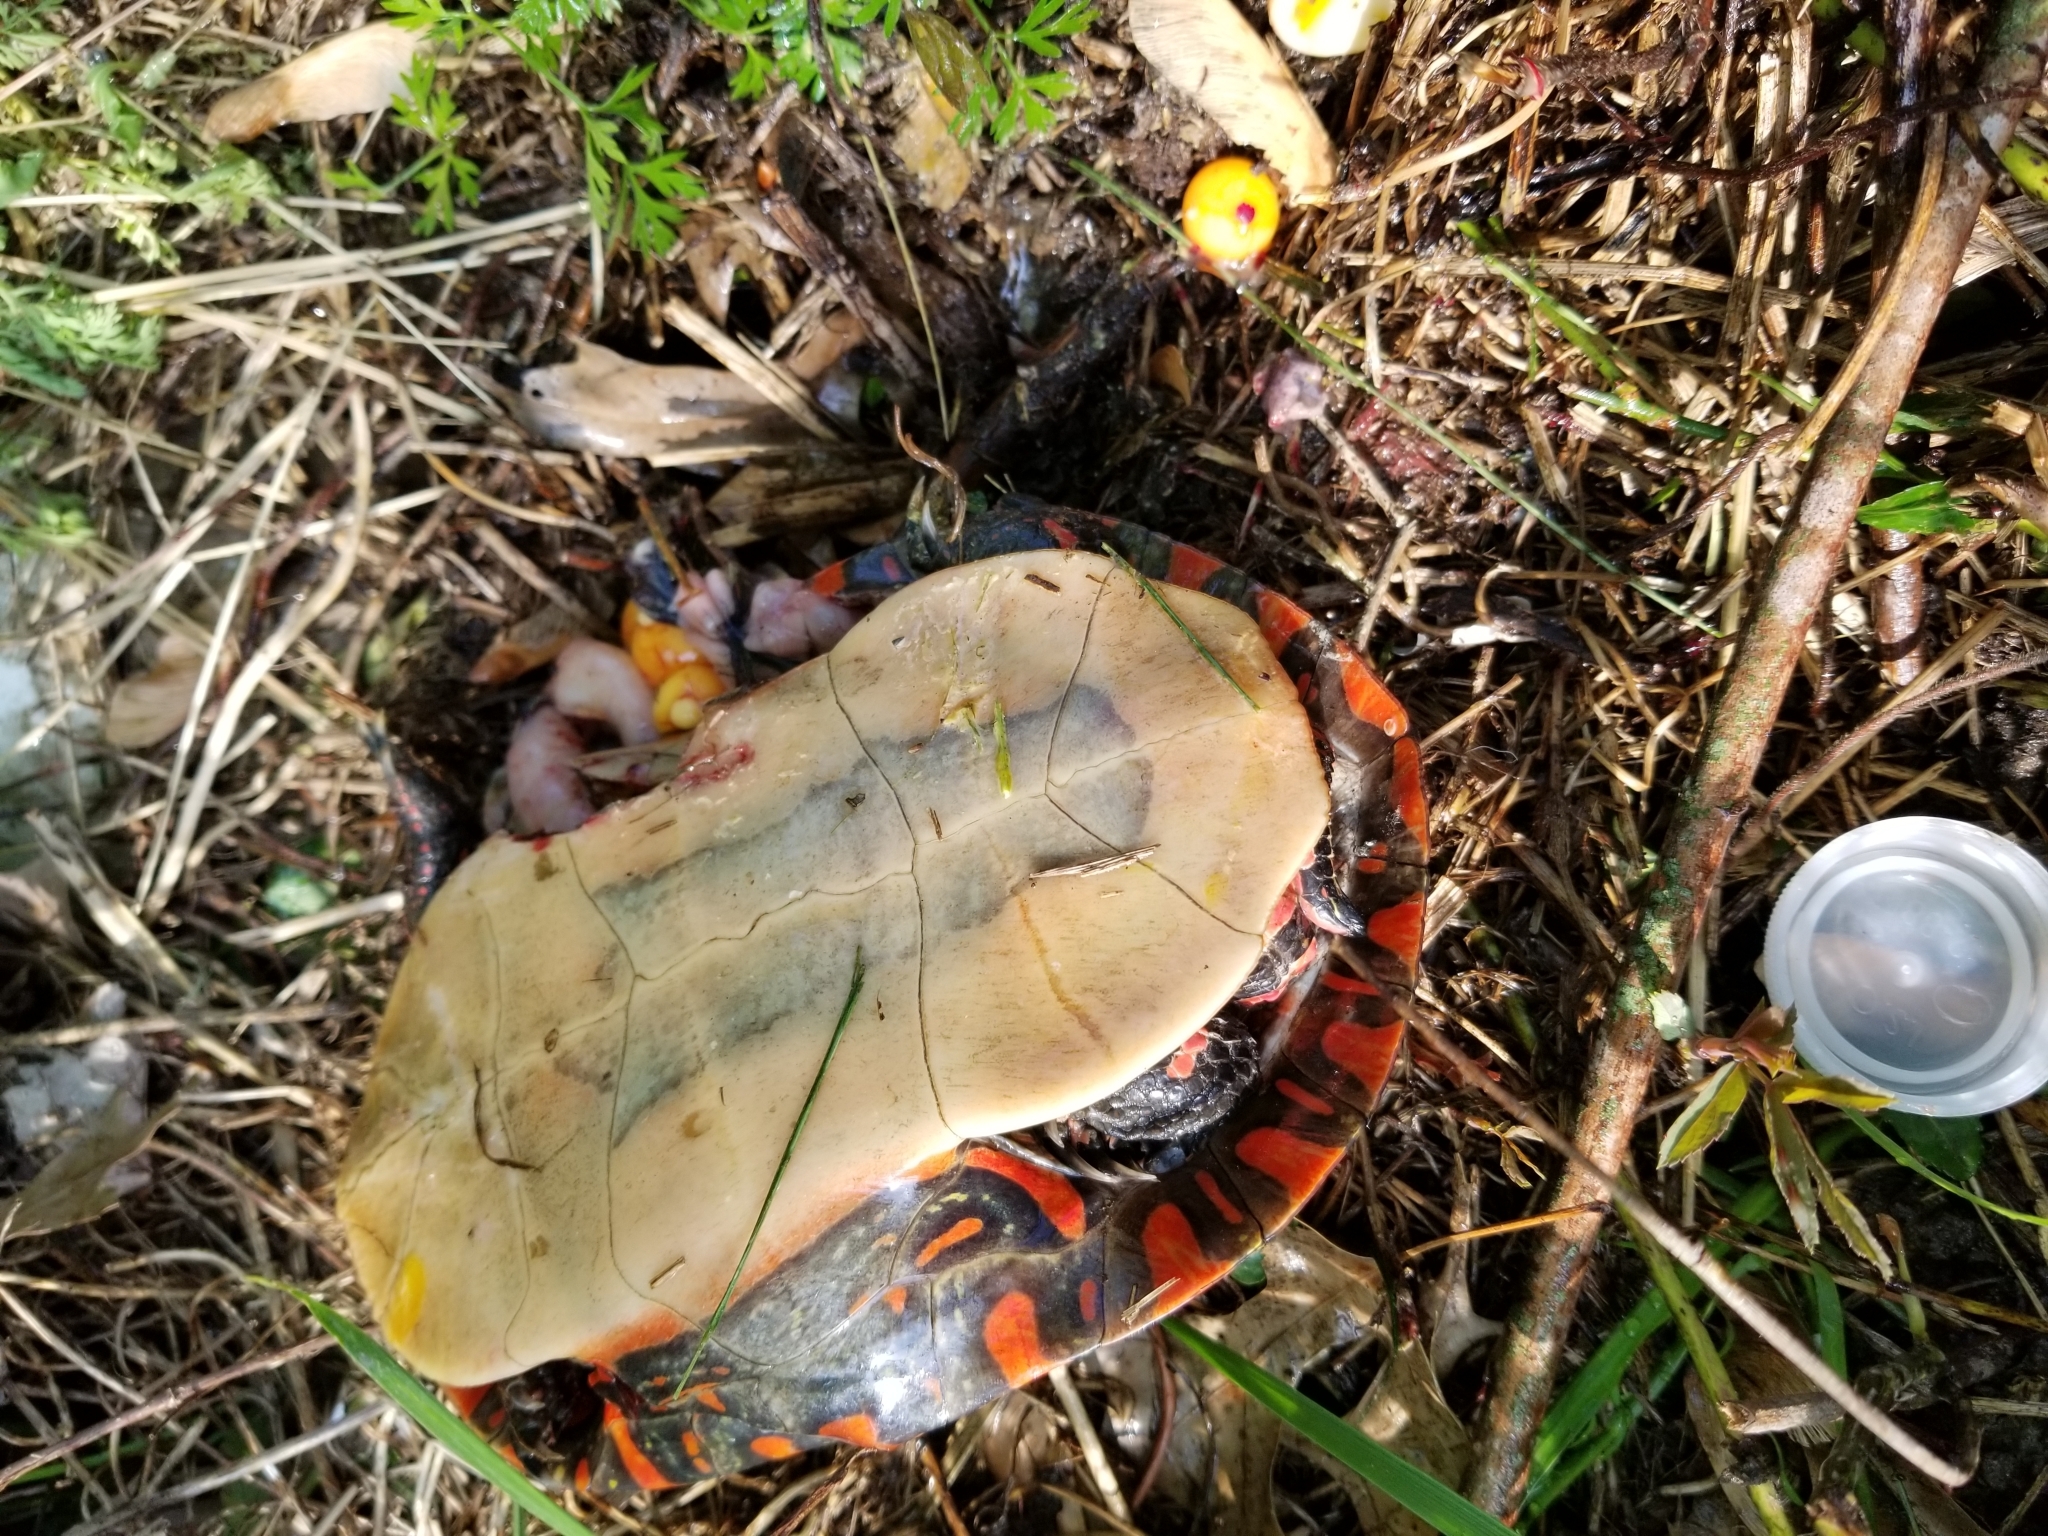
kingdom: Animalia
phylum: Chordata
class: Testudines
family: Emydidae
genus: Chrysemys
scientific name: Chrysemys picta
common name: Painted turtle
